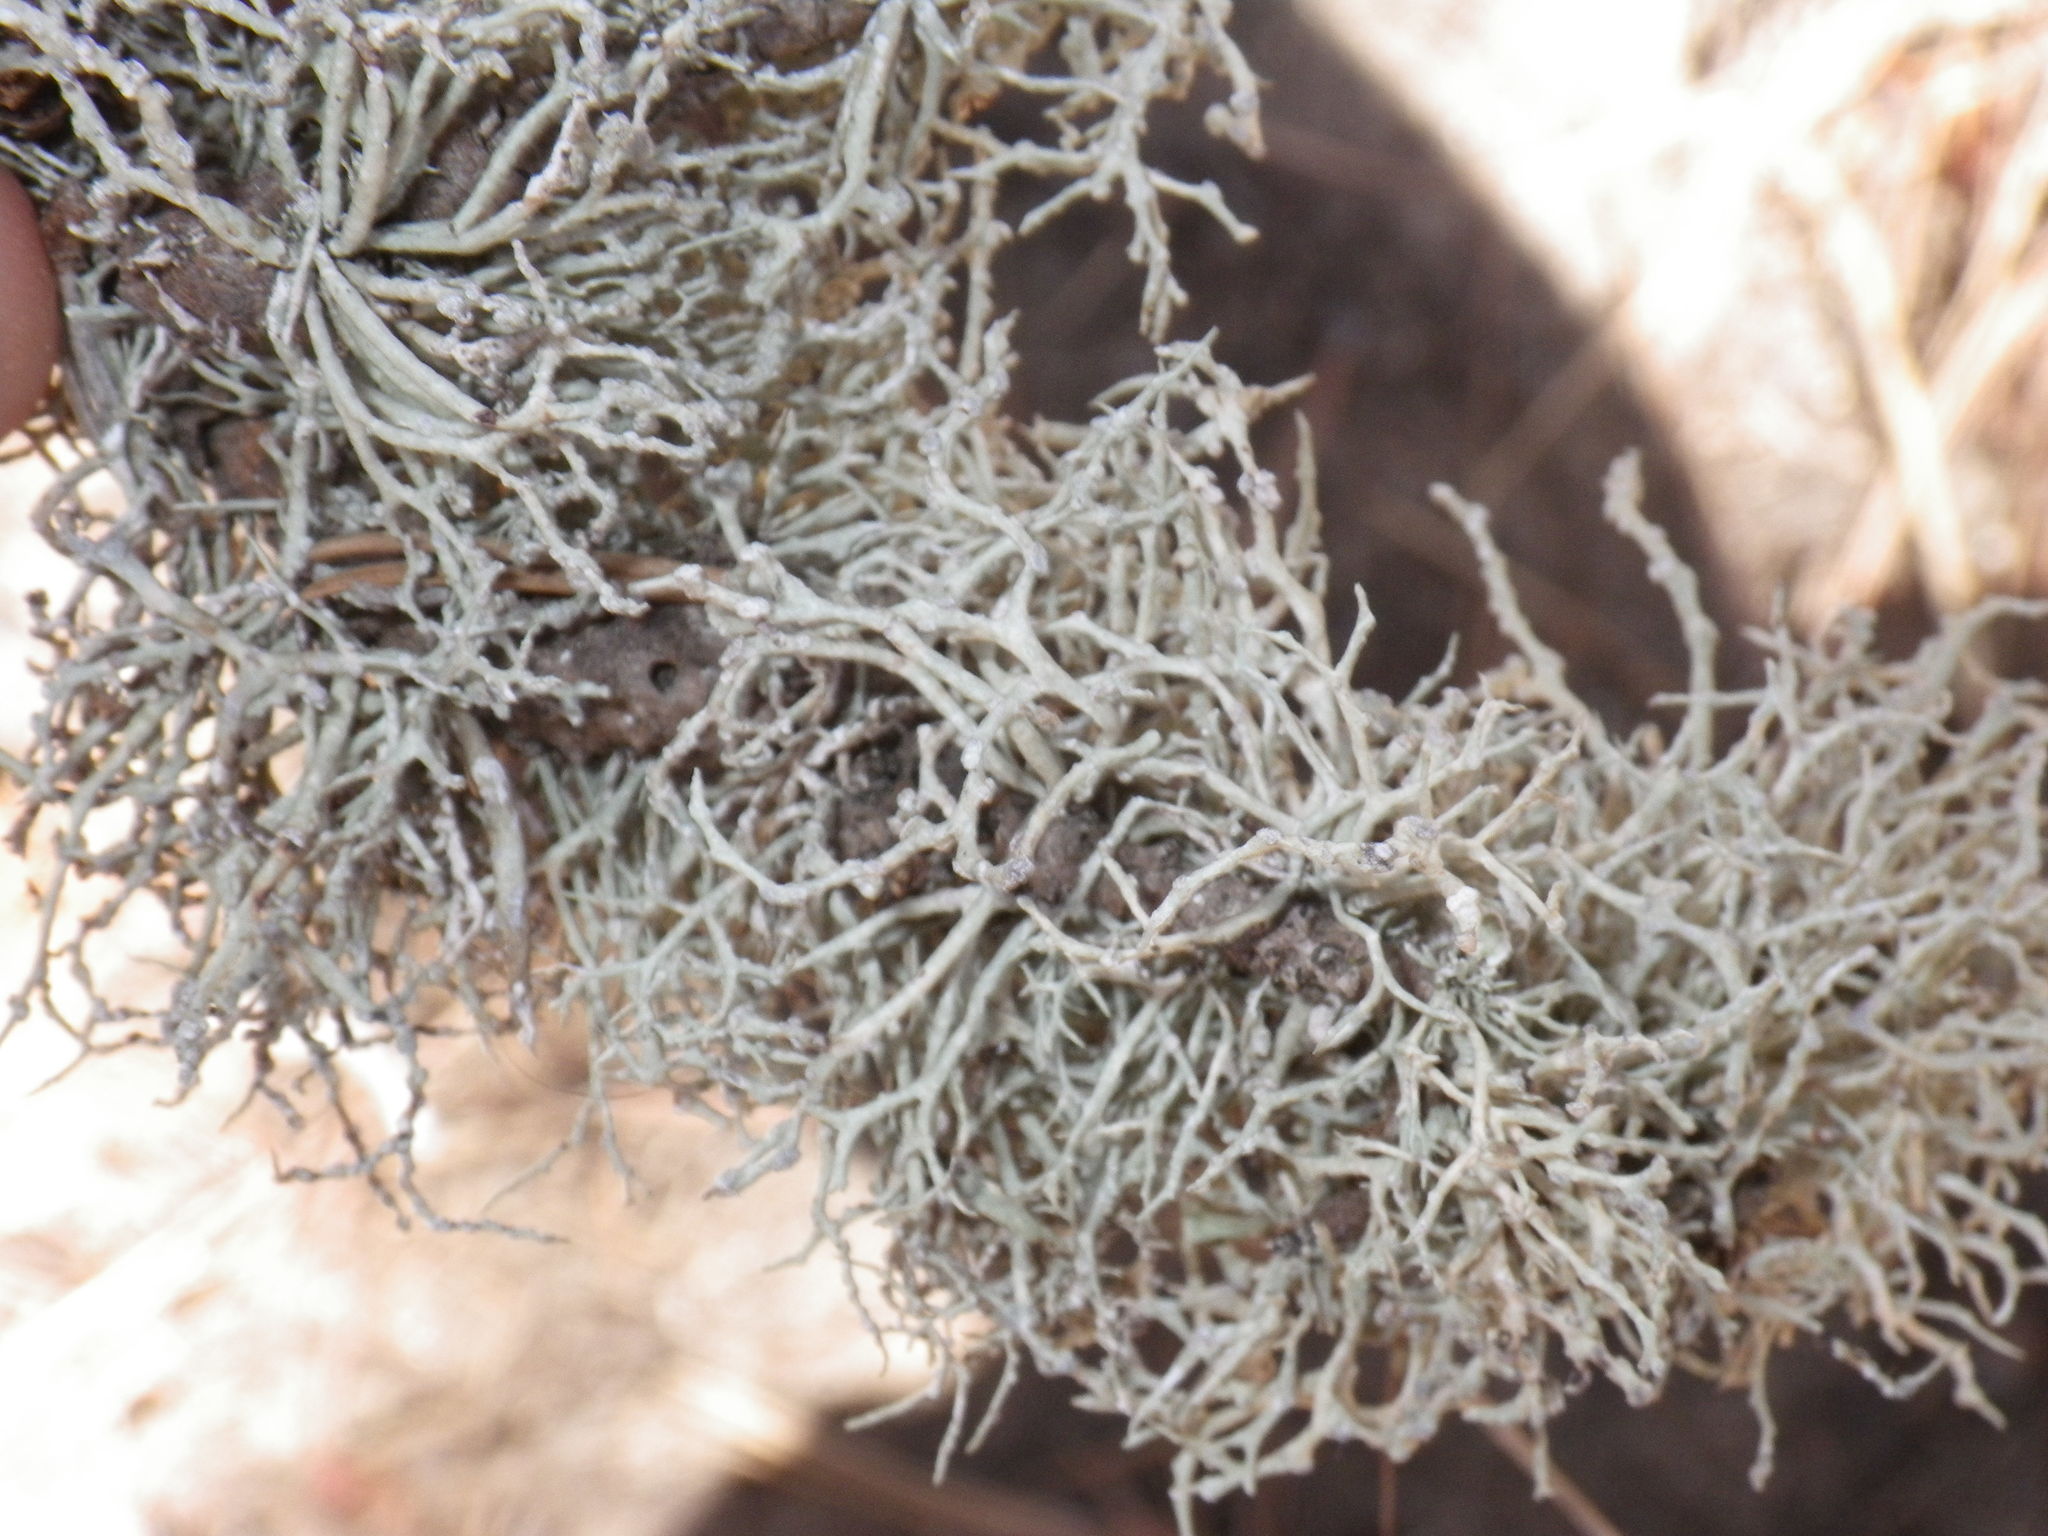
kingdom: Fungi
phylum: Ascomycota
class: Lecanoromycetes
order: Lecanorales
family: Ramalinaceae
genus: Niebla
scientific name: Niebla cephalota
